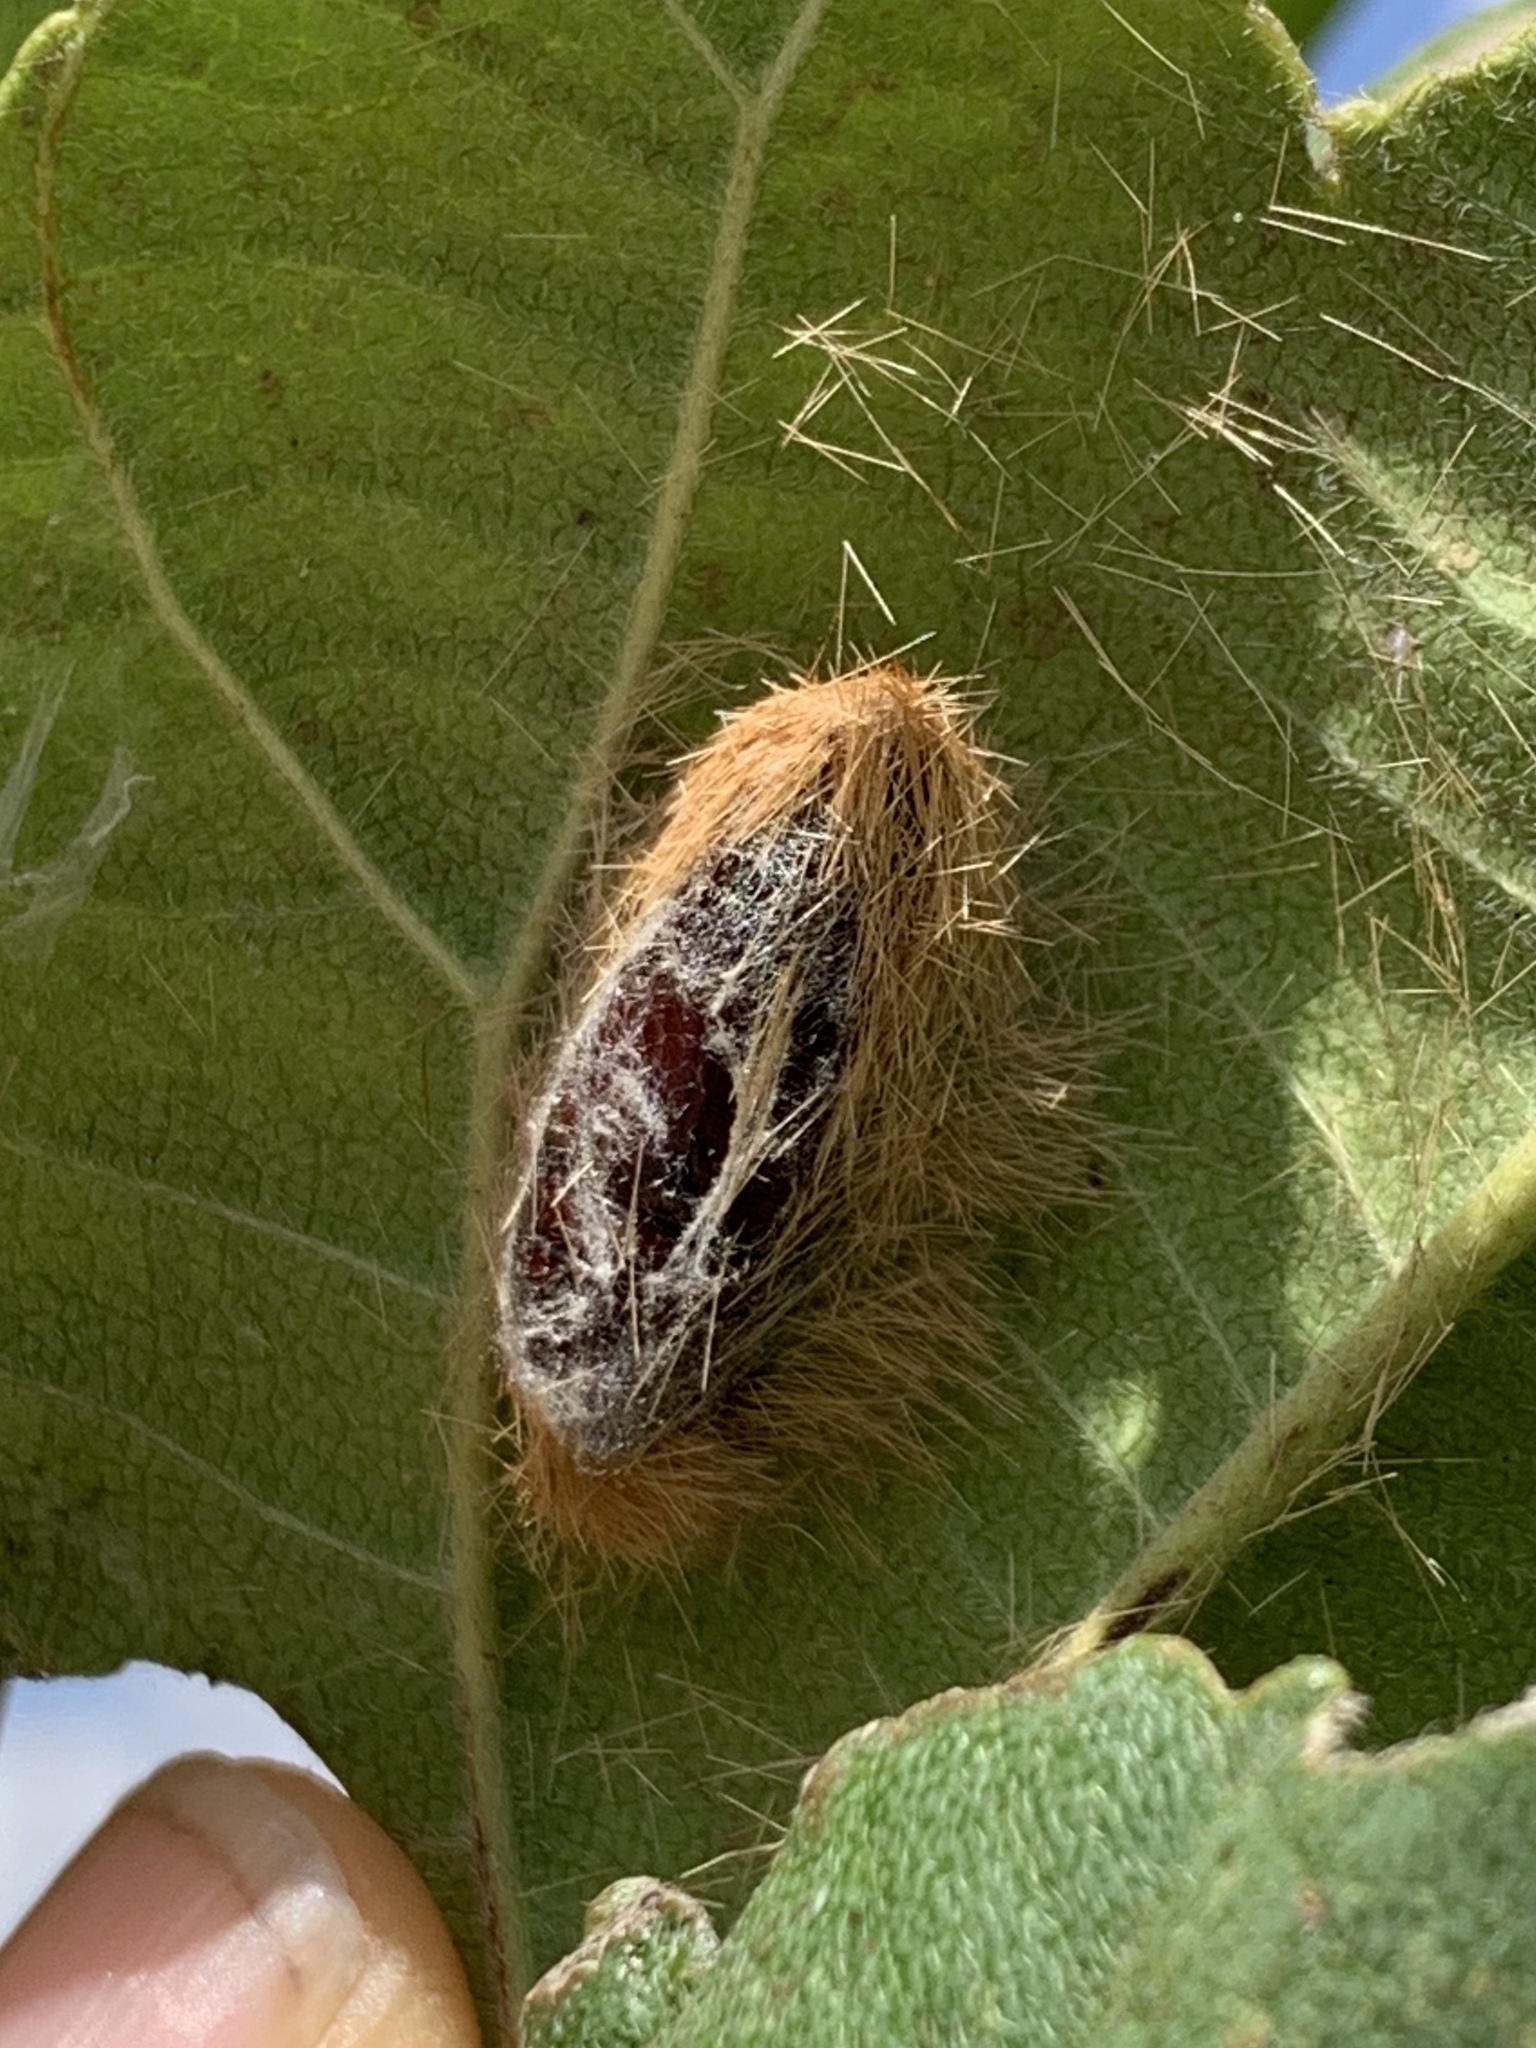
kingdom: Animalia
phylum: Arthropoda
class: Insecta
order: Lepidoptera
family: Erebidae
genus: Lymire
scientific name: Lymire edwardsii
